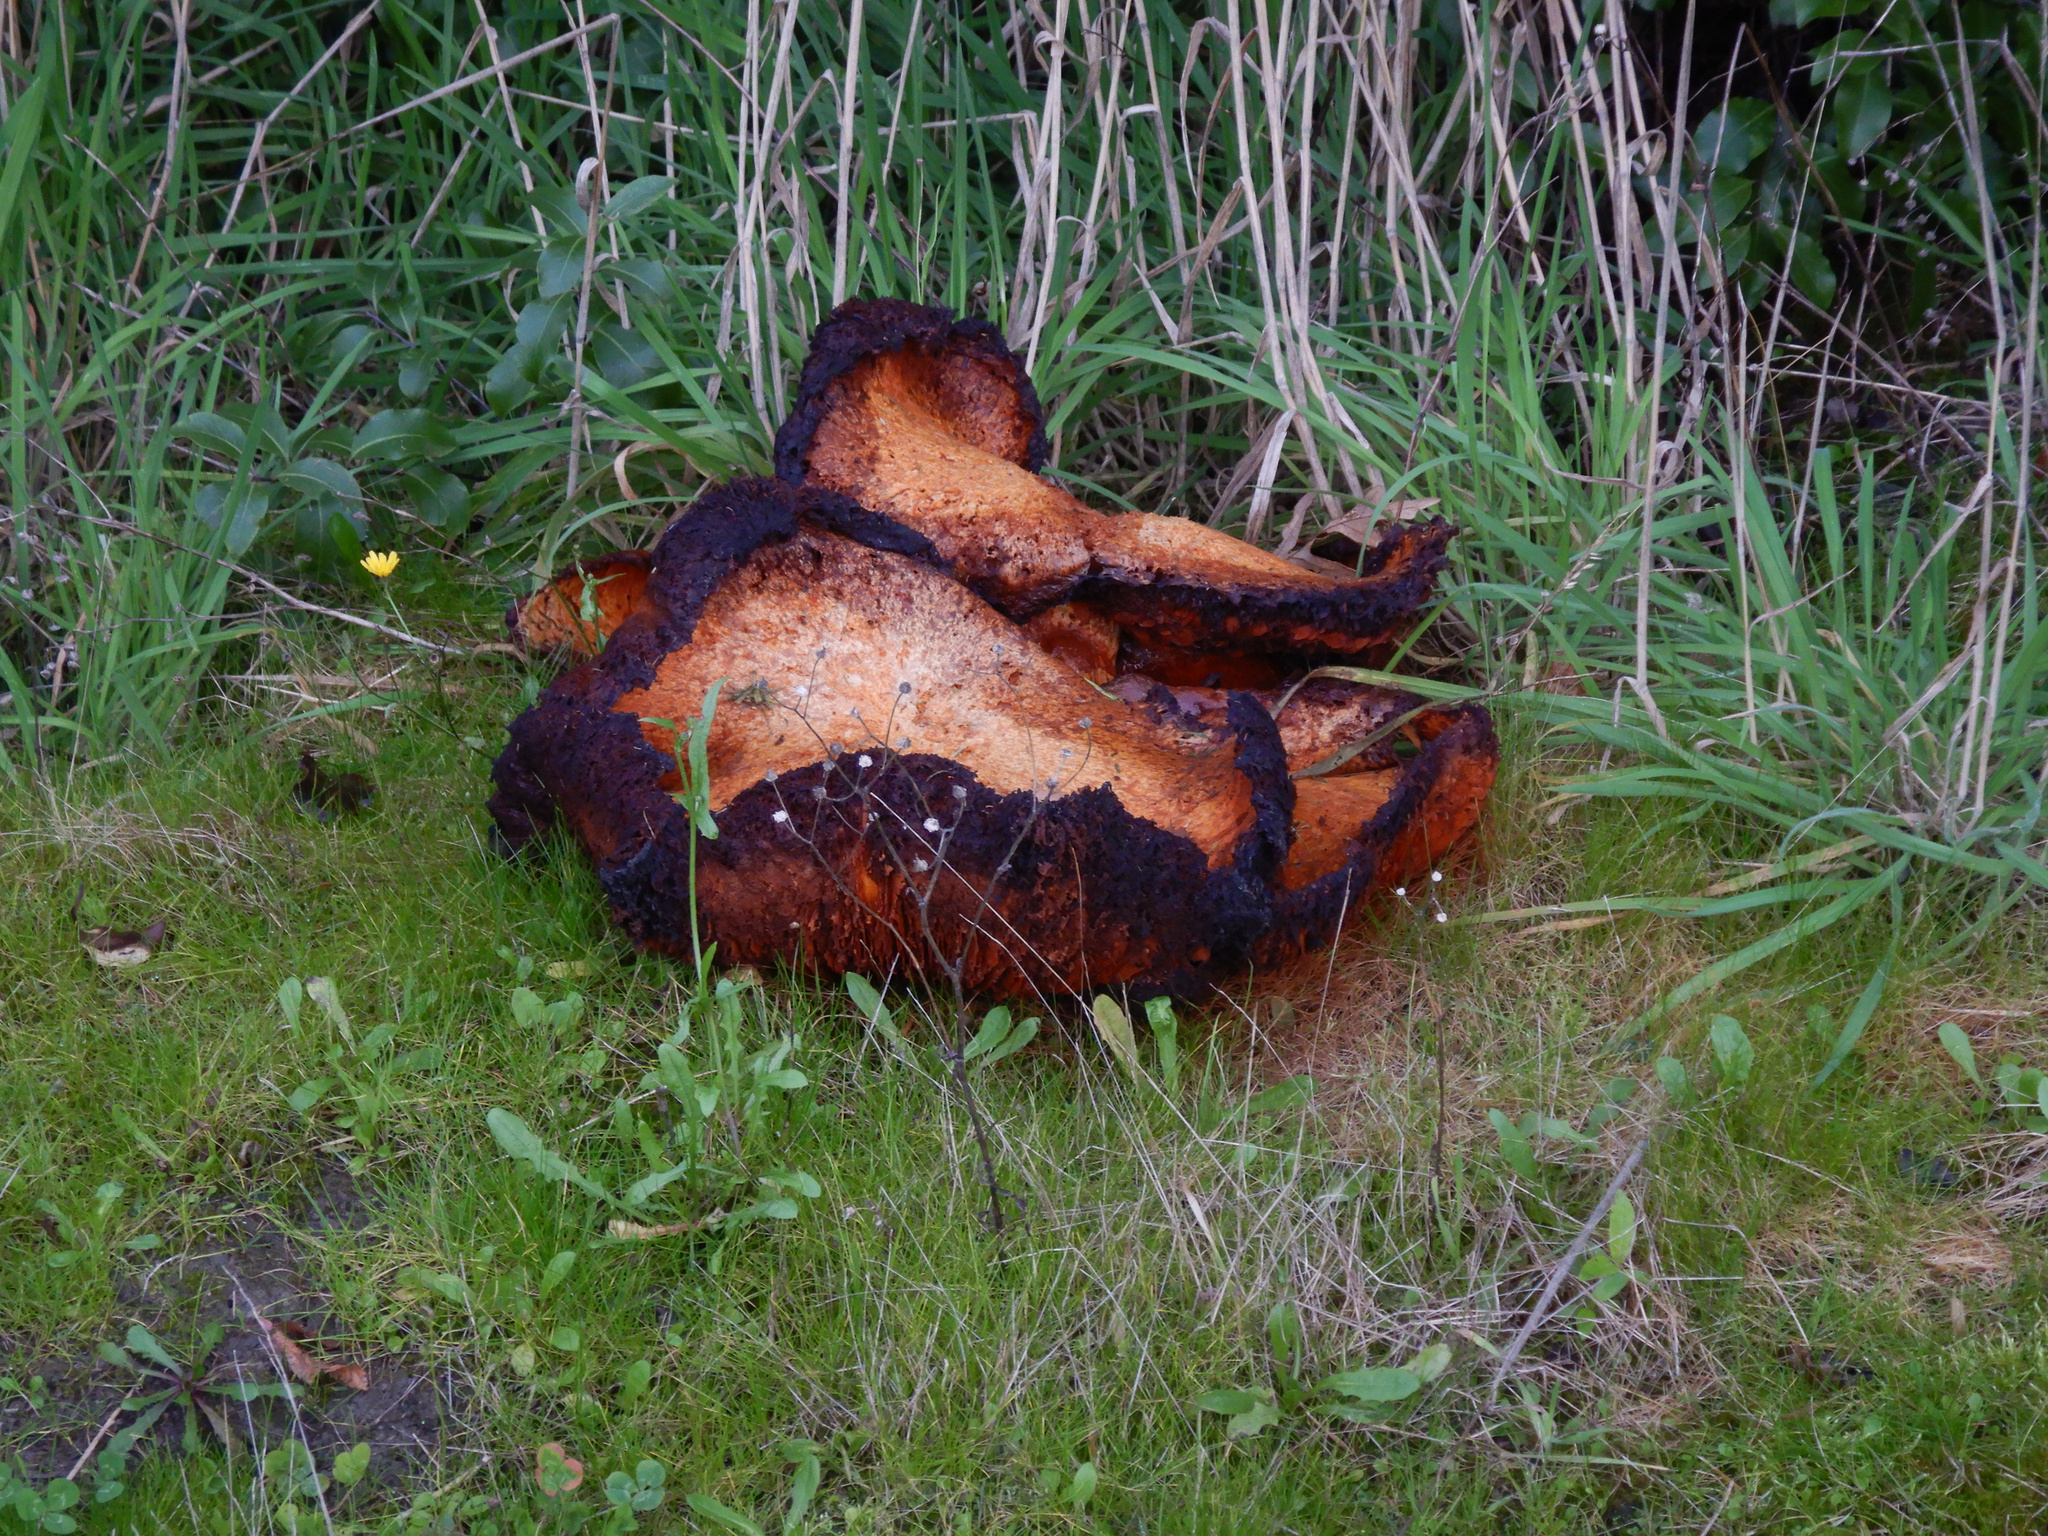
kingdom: Fungi
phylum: Basidiomycota
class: Agaricomycetes
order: Agaricales
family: Hymenogastraceae
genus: Gymnopilus
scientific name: Gymnopilus junonius
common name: Spectacular rustgill
